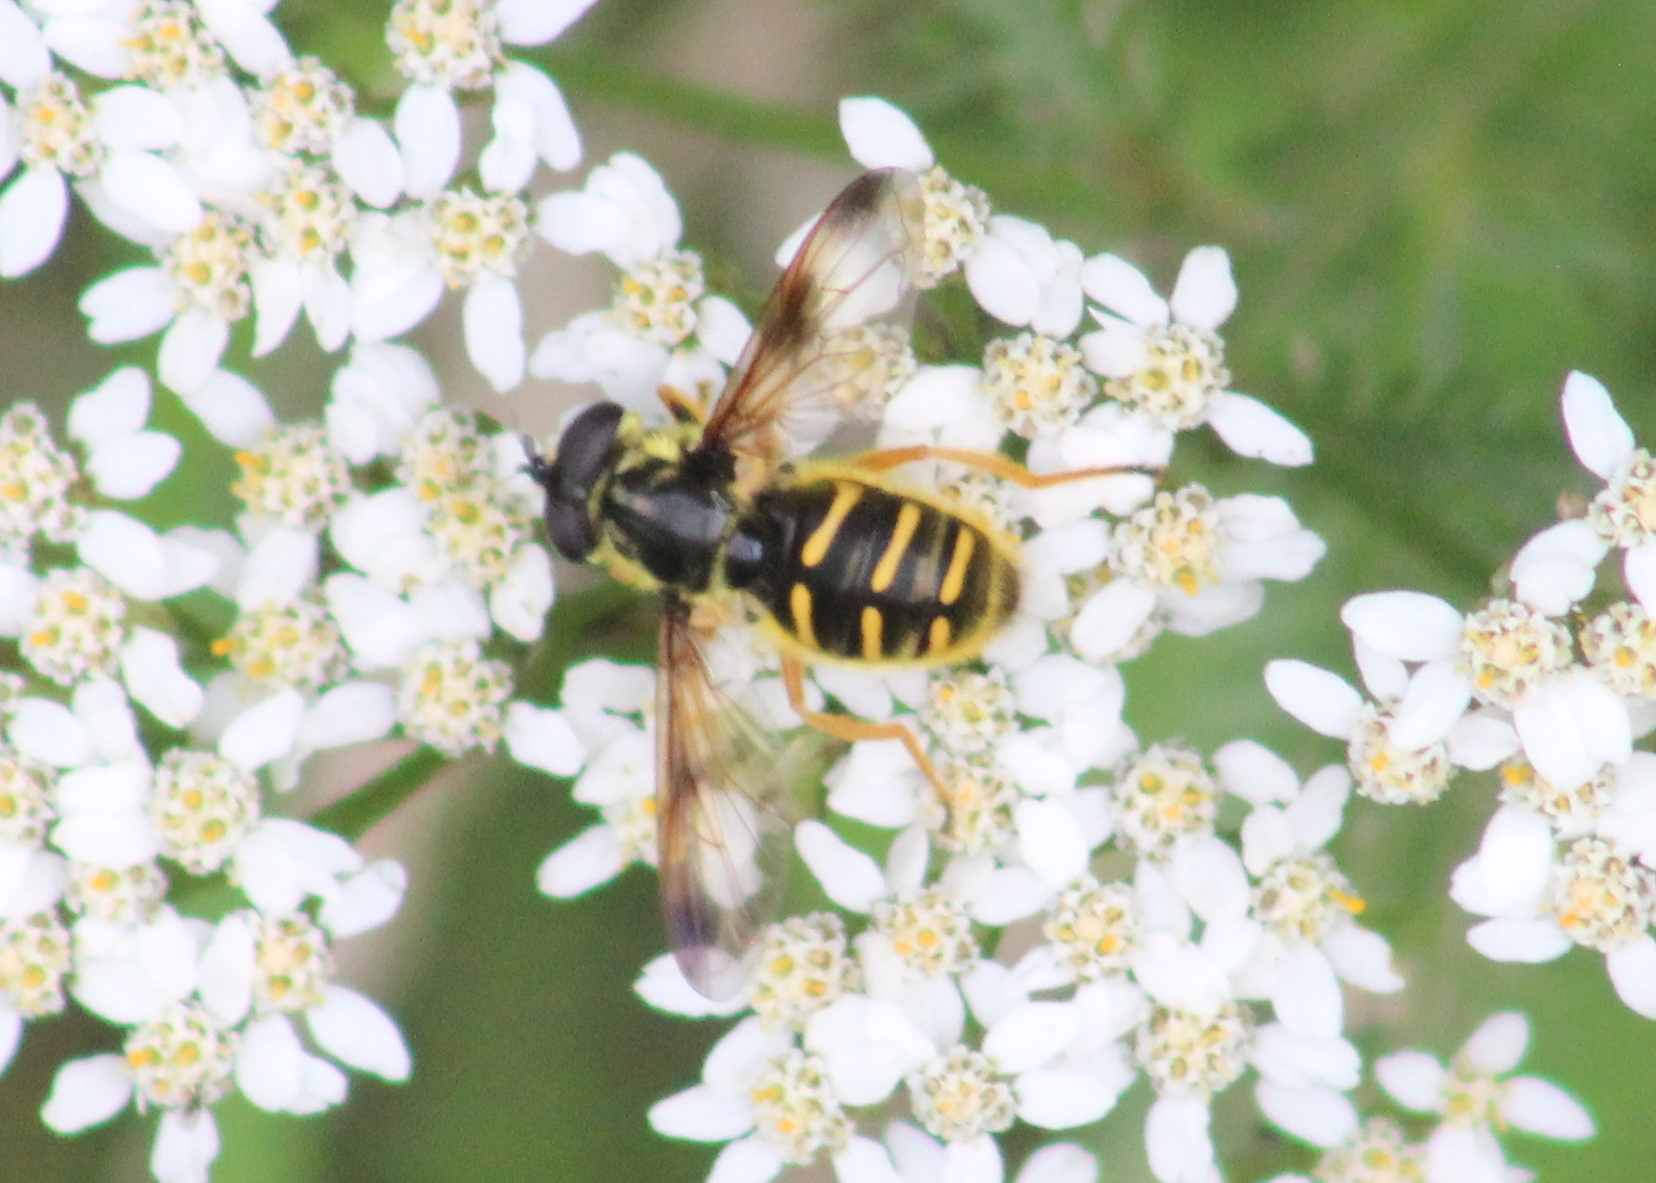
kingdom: Animalia
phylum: Arthropoda
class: Insecta
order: Diptera
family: Syrphidae
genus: Sericomyia
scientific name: Sericomyia chrysotoxoides
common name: Oblique-banded pond fly
